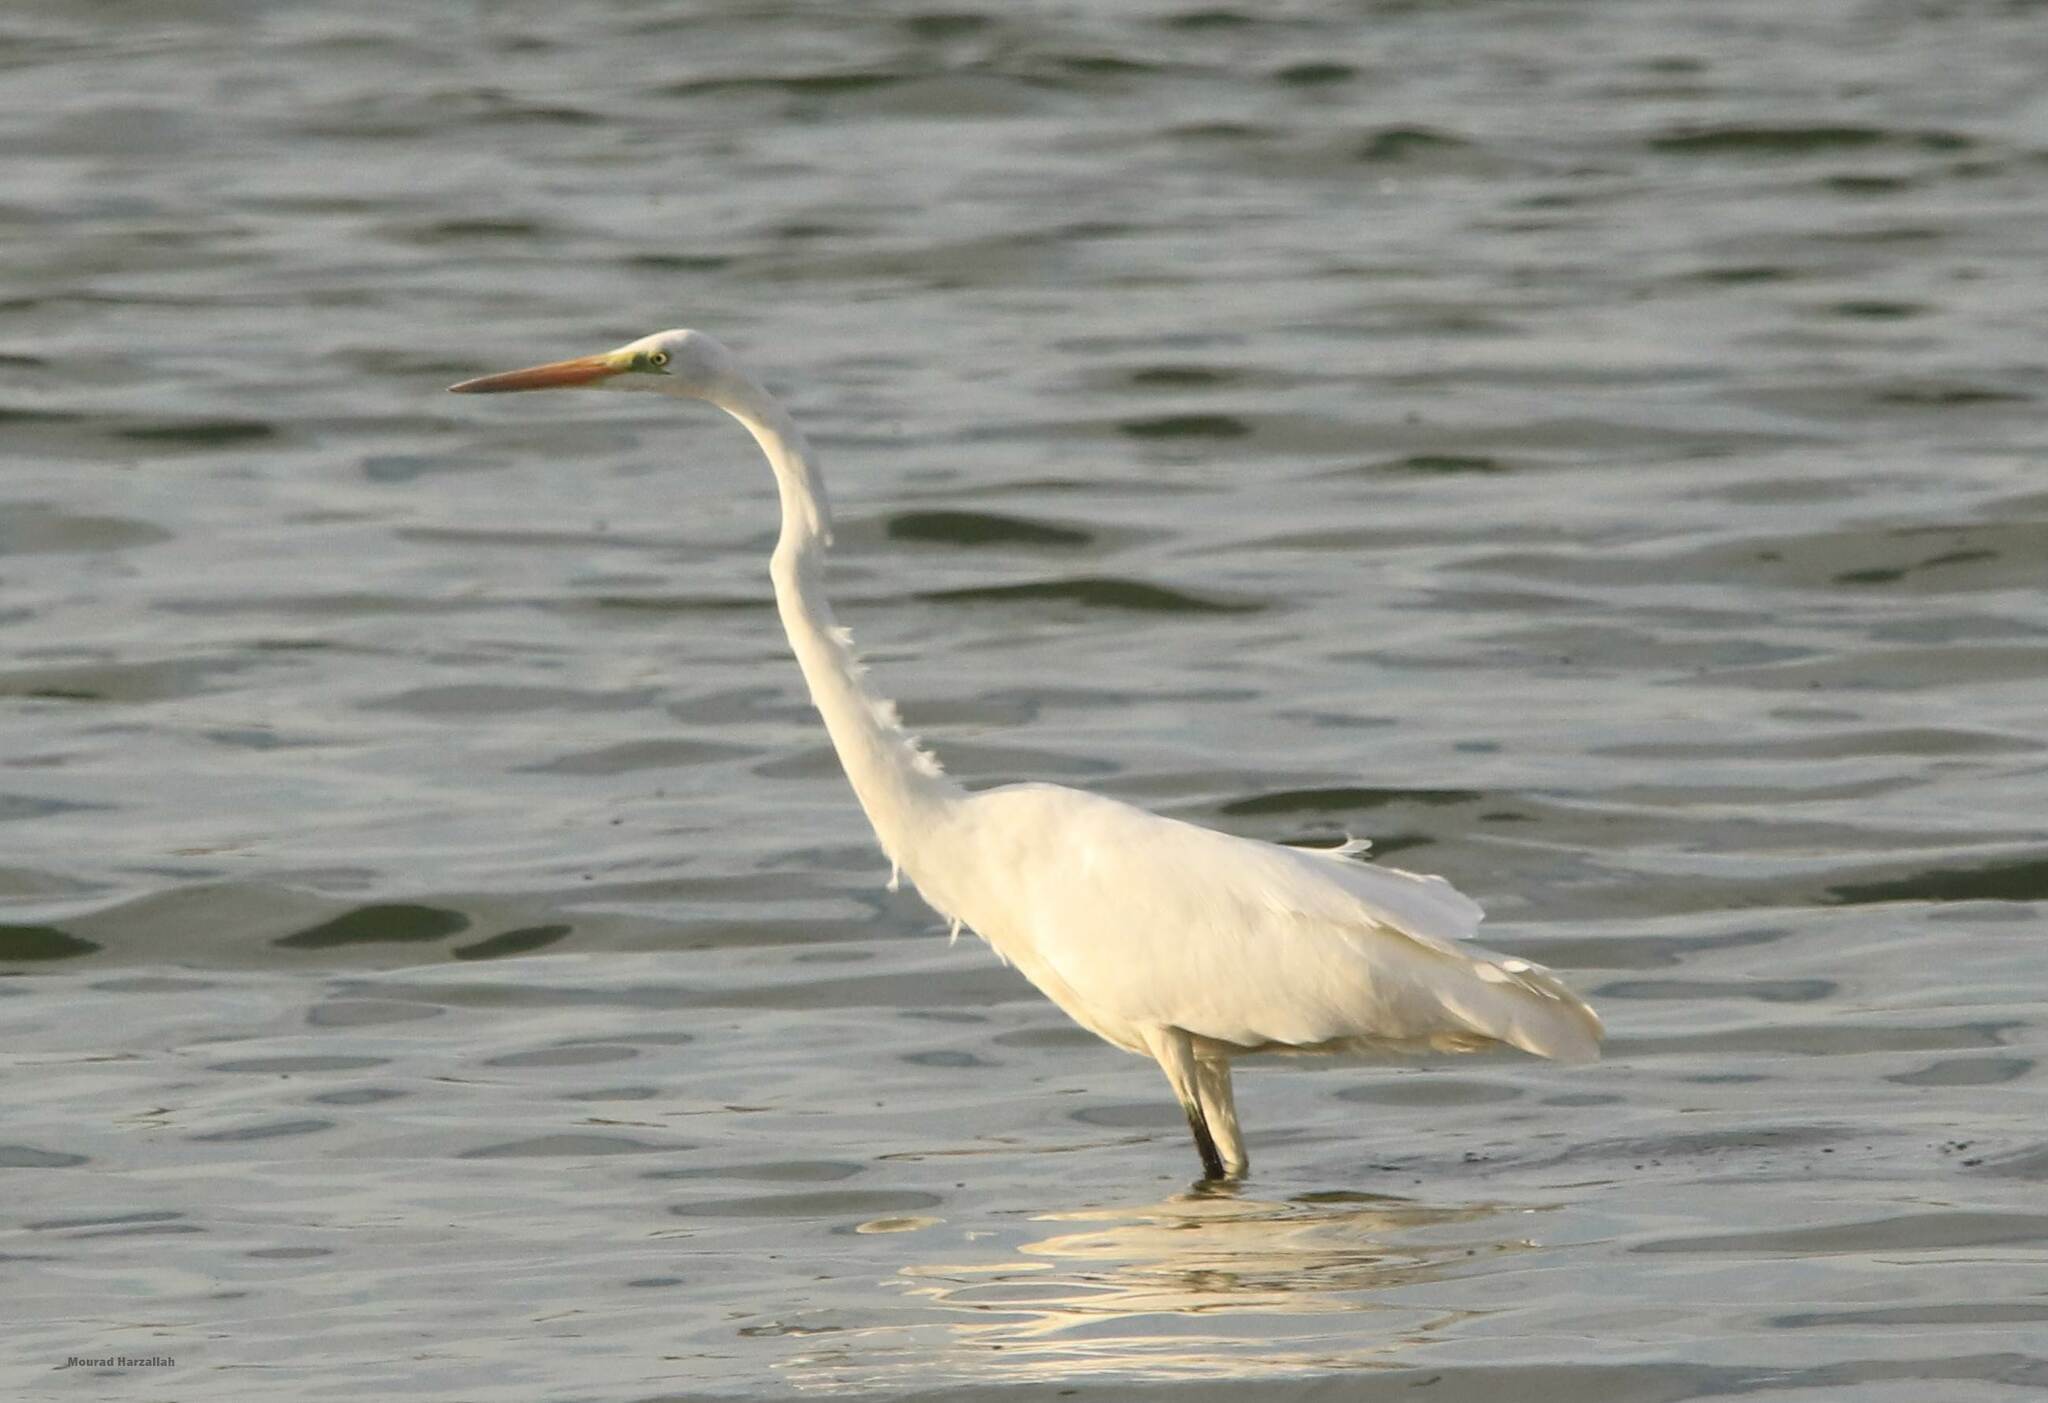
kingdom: Animalia
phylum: Chordata
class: Aves
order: Pelecaniformes
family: Ardeidae
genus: Ardea
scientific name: Ardea alba
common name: Great egret
